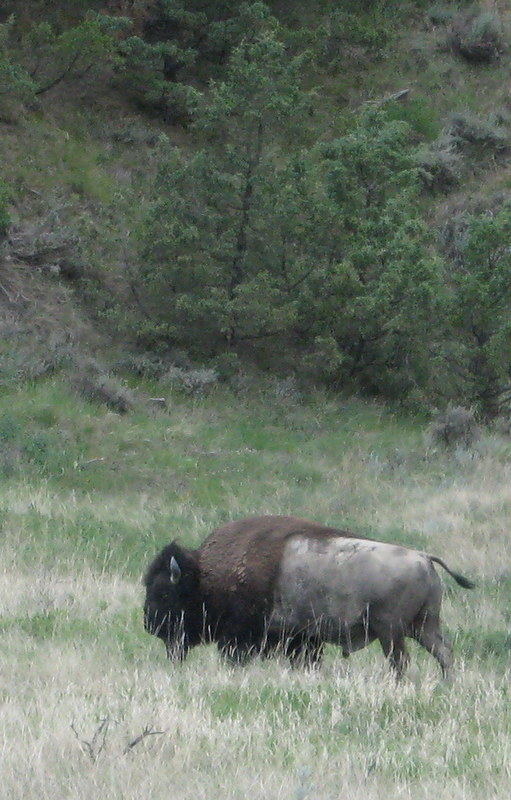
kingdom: Animalia
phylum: Chordata
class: Mammalia
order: Artiodactyla
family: Bovidae
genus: Bison
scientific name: Bison bison
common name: American bison
